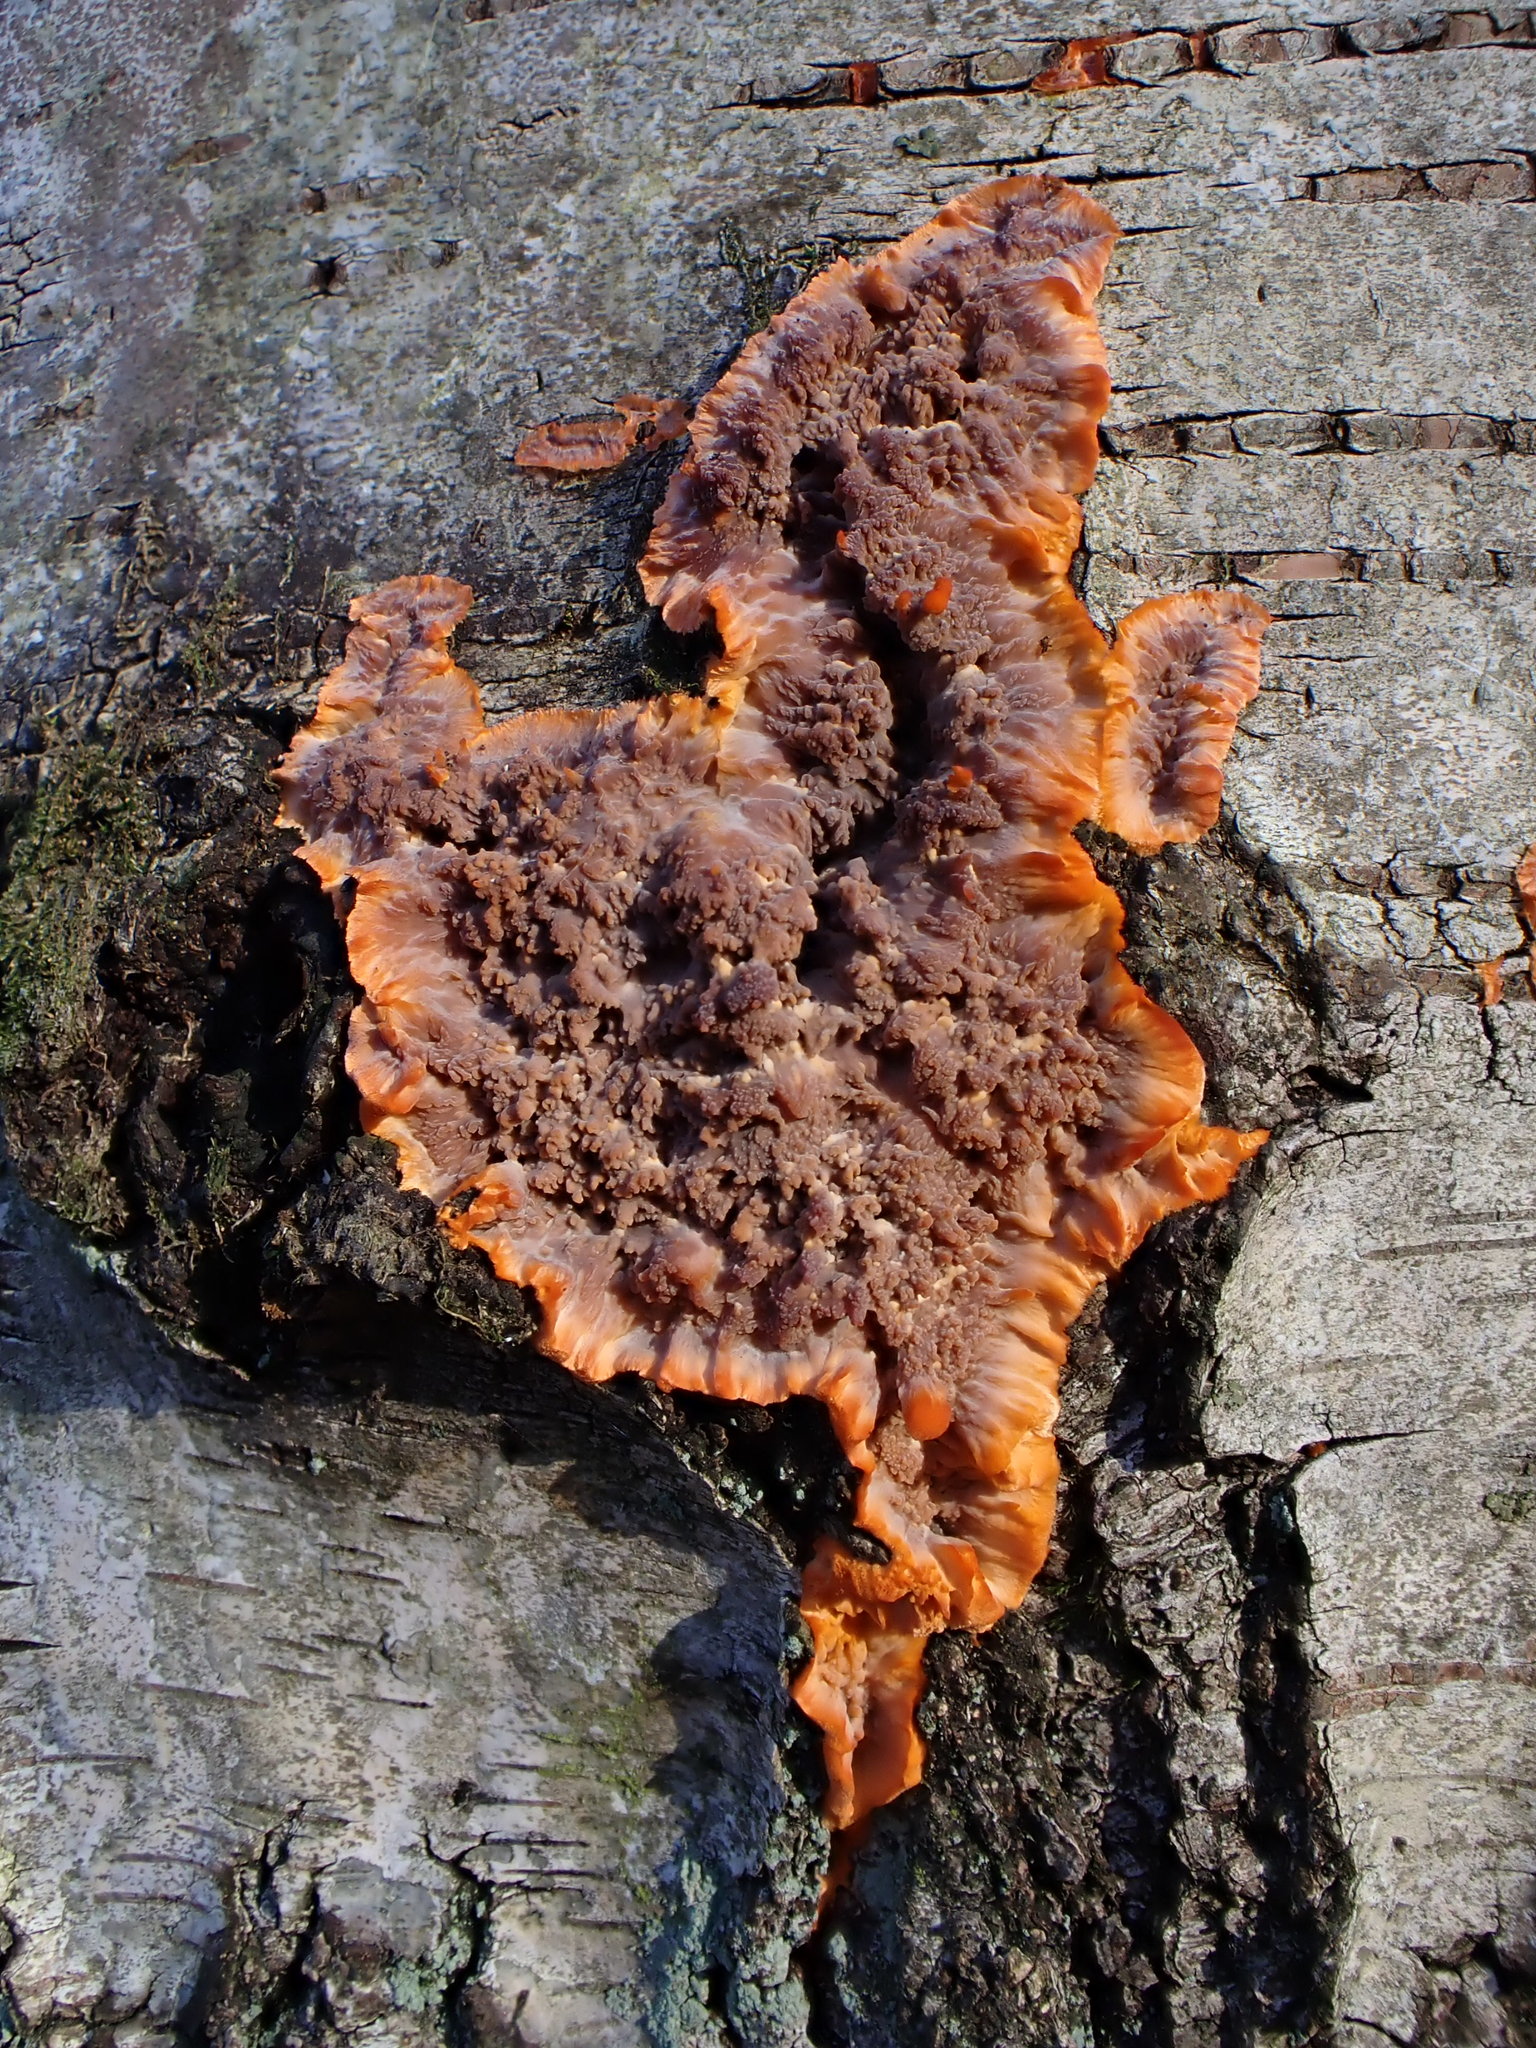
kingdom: Fungi
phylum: Basidiomycota
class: Agaricomycetes
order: Polyporales
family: Meruliaceae
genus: Phlebia
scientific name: Phlebia radiata
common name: Wrinkled crust
